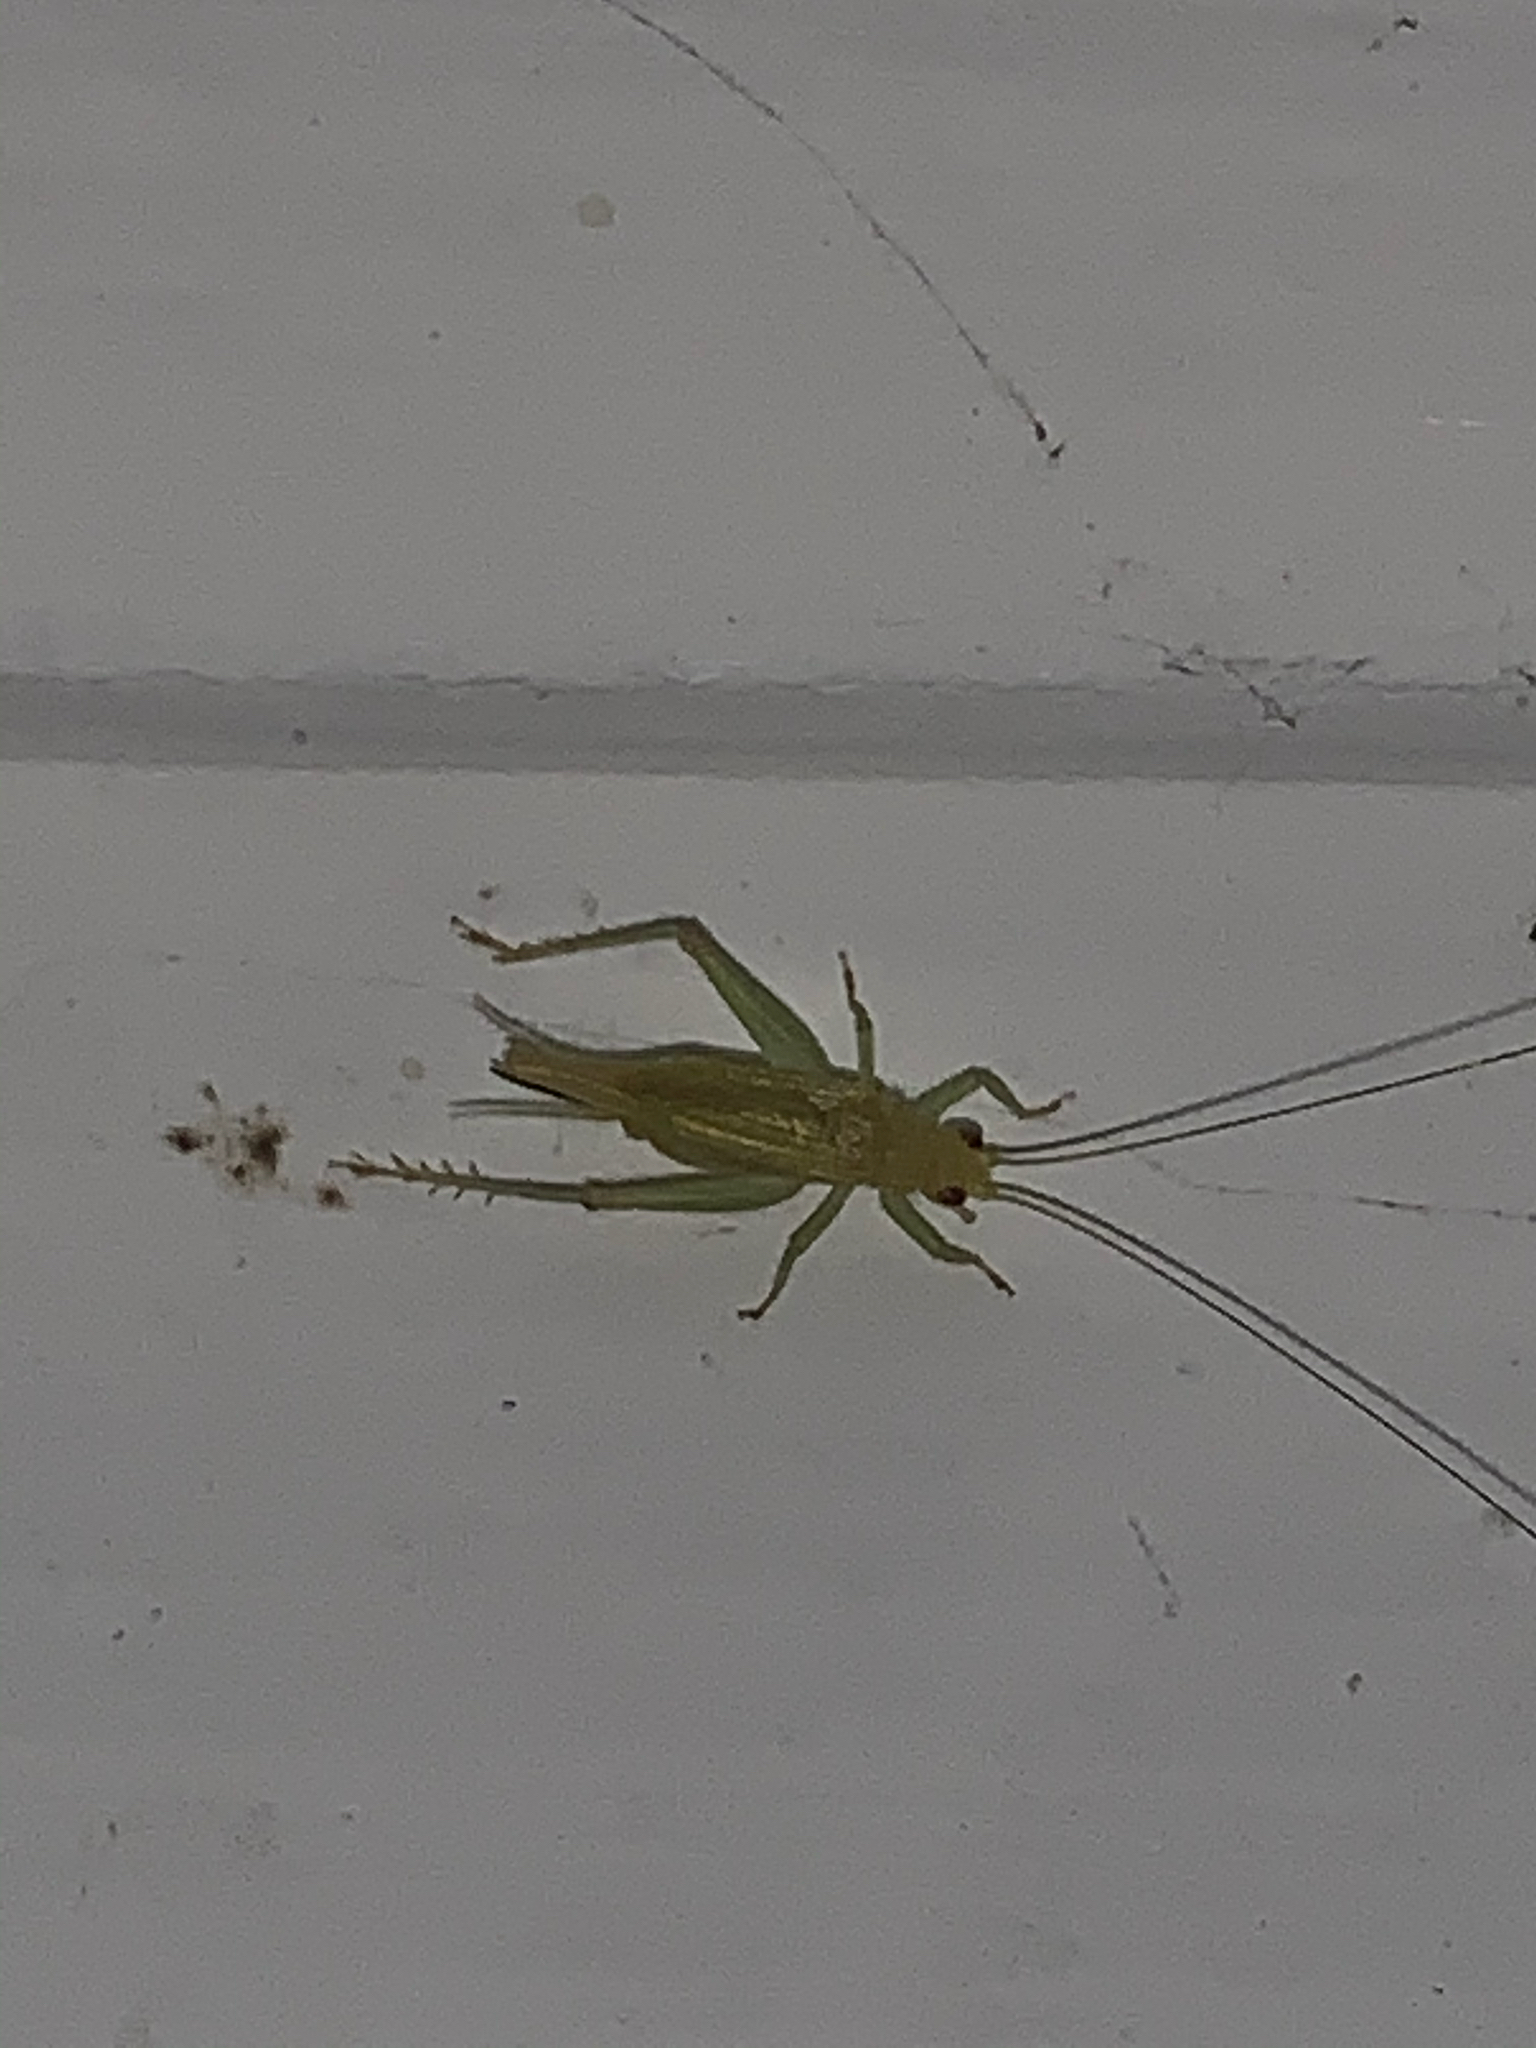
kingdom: Animalia
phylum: Arthropoda
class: Insecta
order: Orthoptera
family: Trigonidiidae
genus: Cyrtoxipha
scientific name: Cyrtoxipha columbiana
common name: Columbian trig
